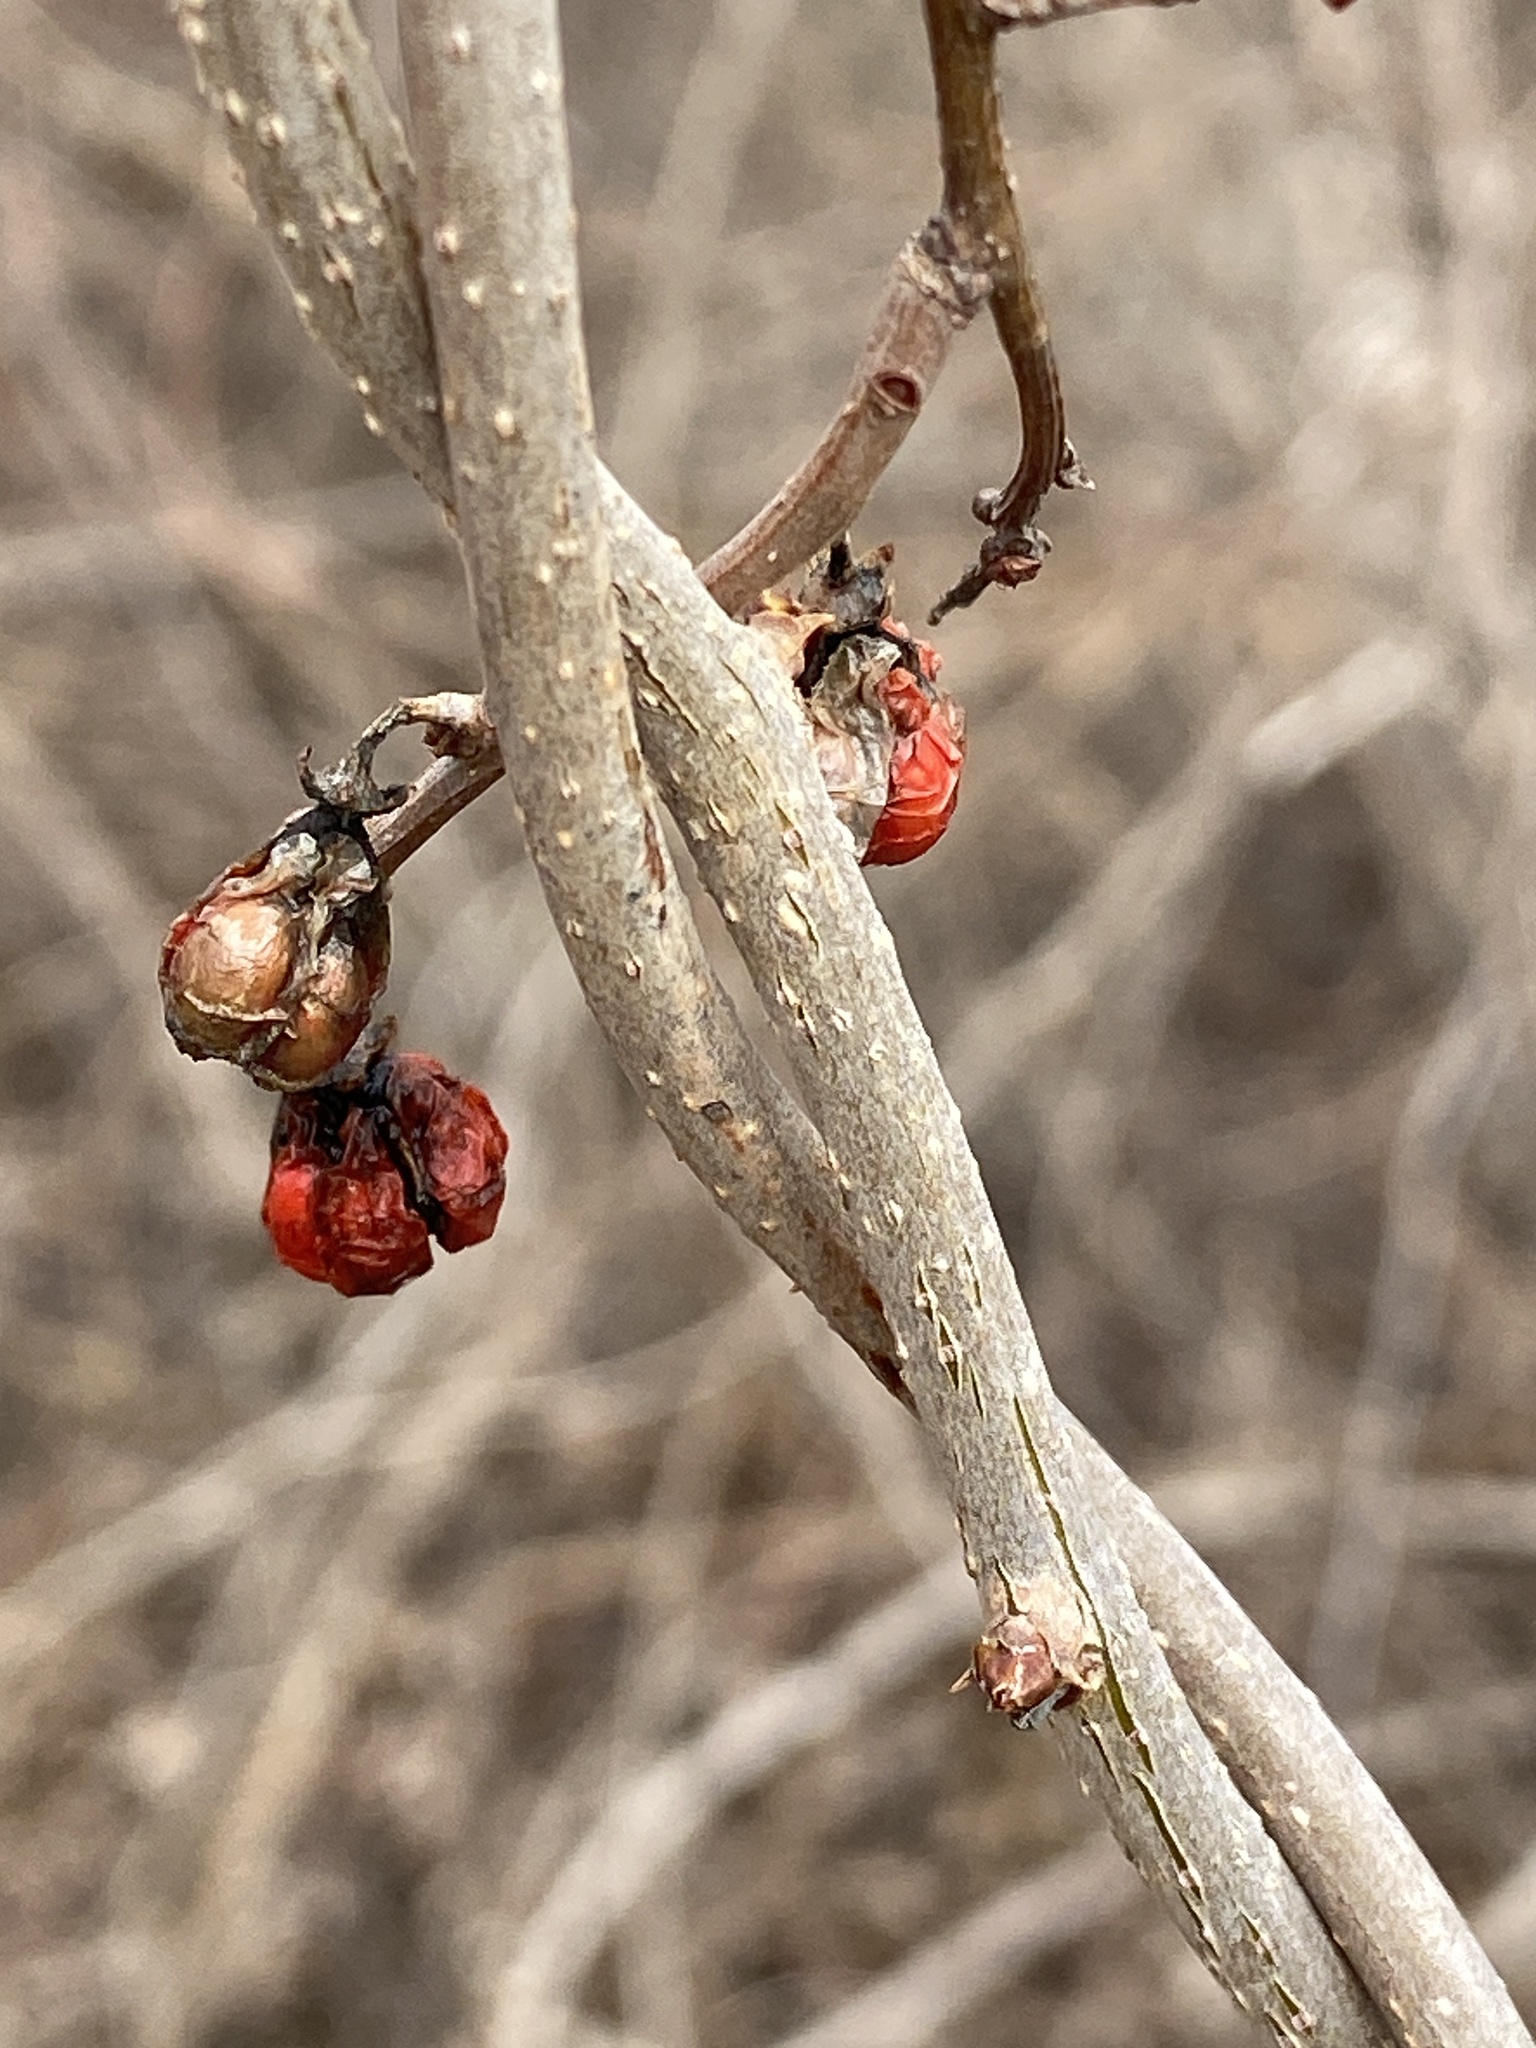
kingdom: Plantae
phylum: Tracheophyta
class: Magnoliopsida
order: Celastrales
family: Celastraceae
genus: Celastrus
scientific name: Celastrus orbiculatus
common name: Oriental bittersweet
